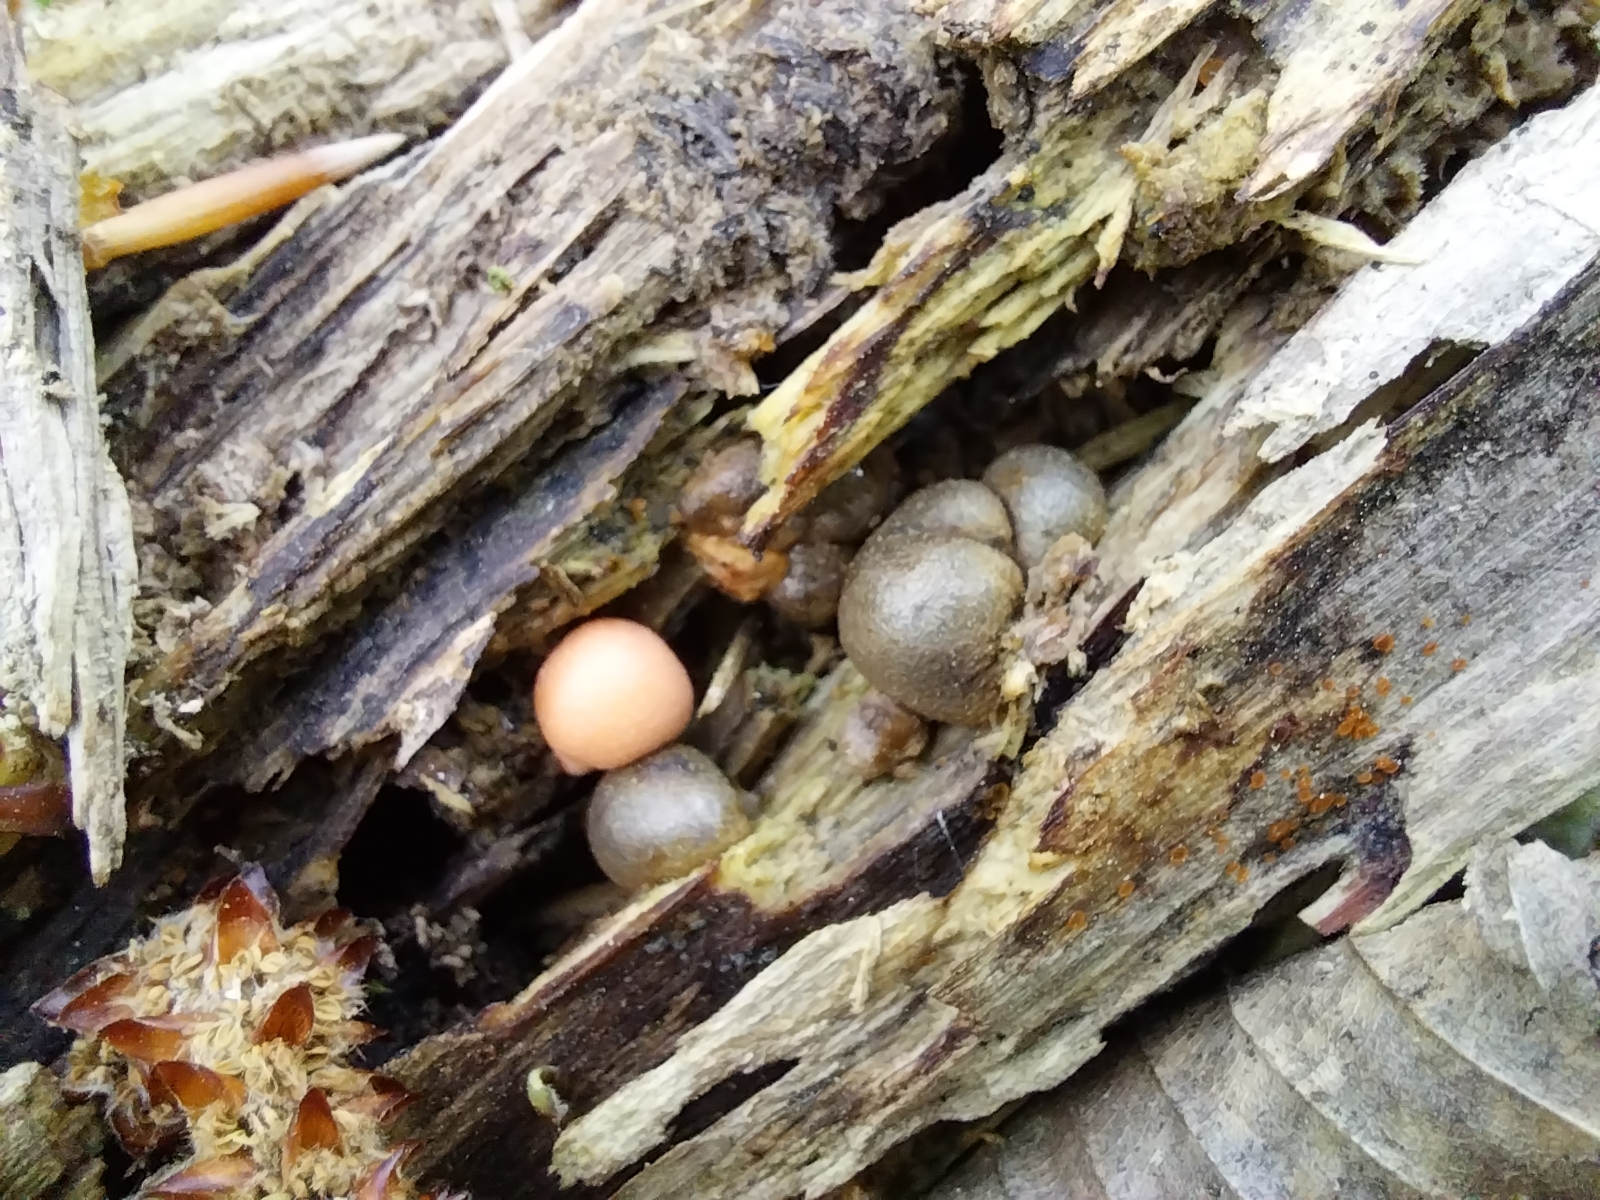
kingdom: Protozoa
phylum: Mycetozoa
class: Myxomycetes
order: Cribrariales
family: Tubiferaceae
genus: Lycogala
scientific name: Lycogala epidendrum
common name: Wolf's milk
